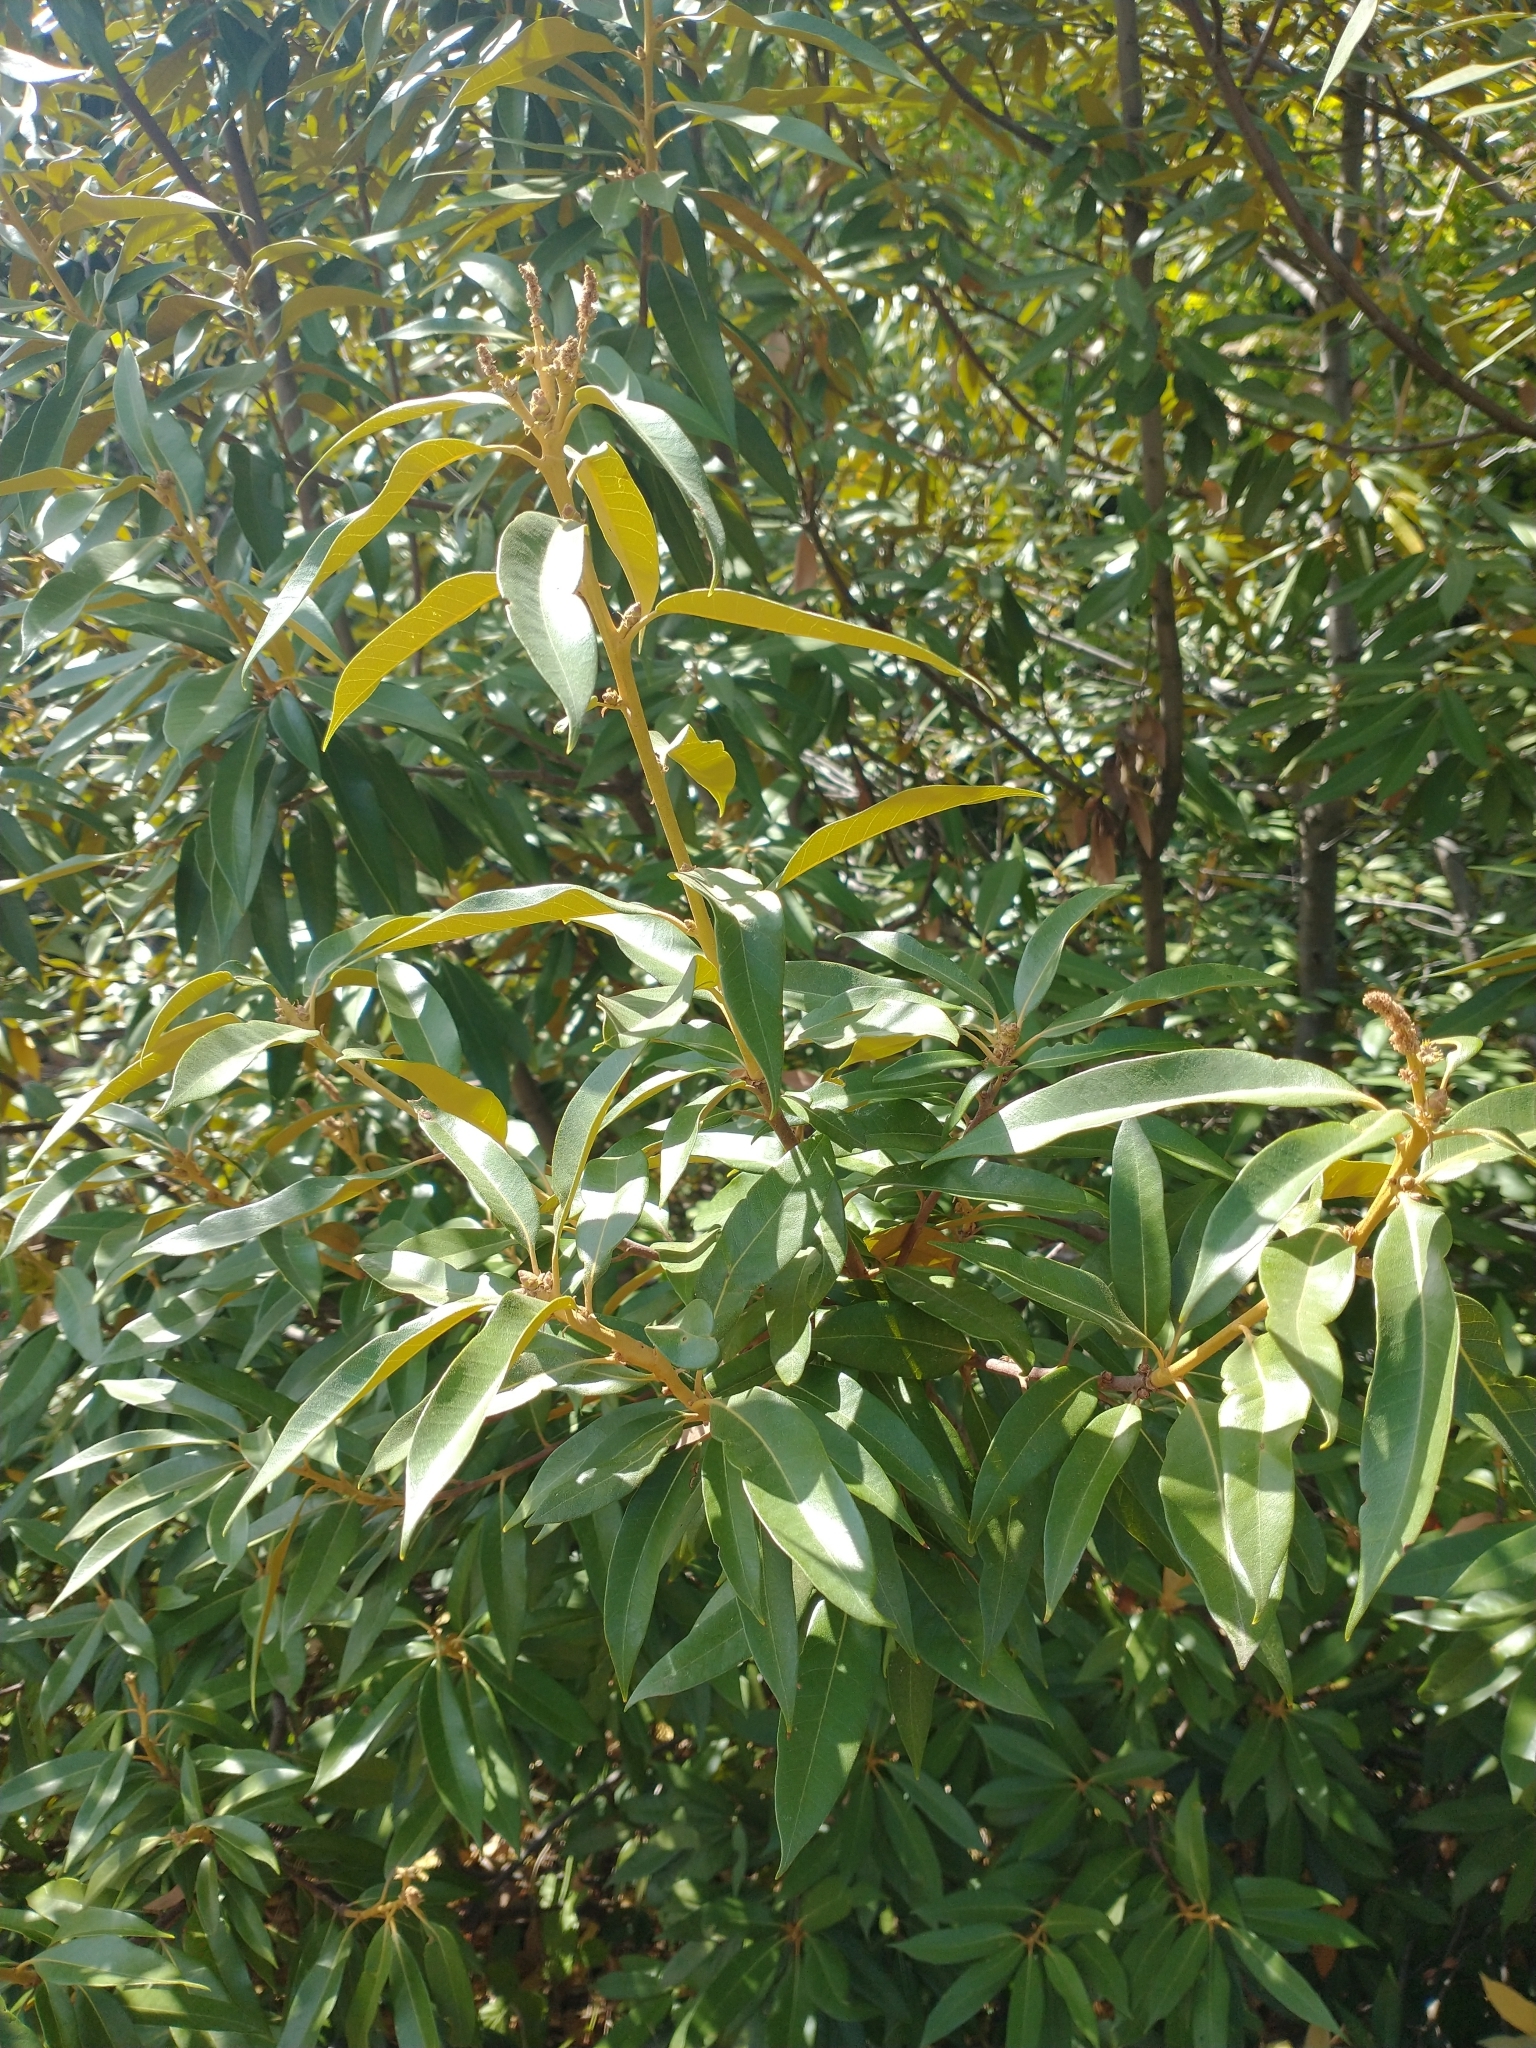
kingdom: Plantae
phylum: Tracheophyta
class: Magnoliopsida
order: Fagales
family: Fagaceae
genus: Chrysolepis
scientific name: Chrysolepis chrysophylla
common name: Giant chinquapin
